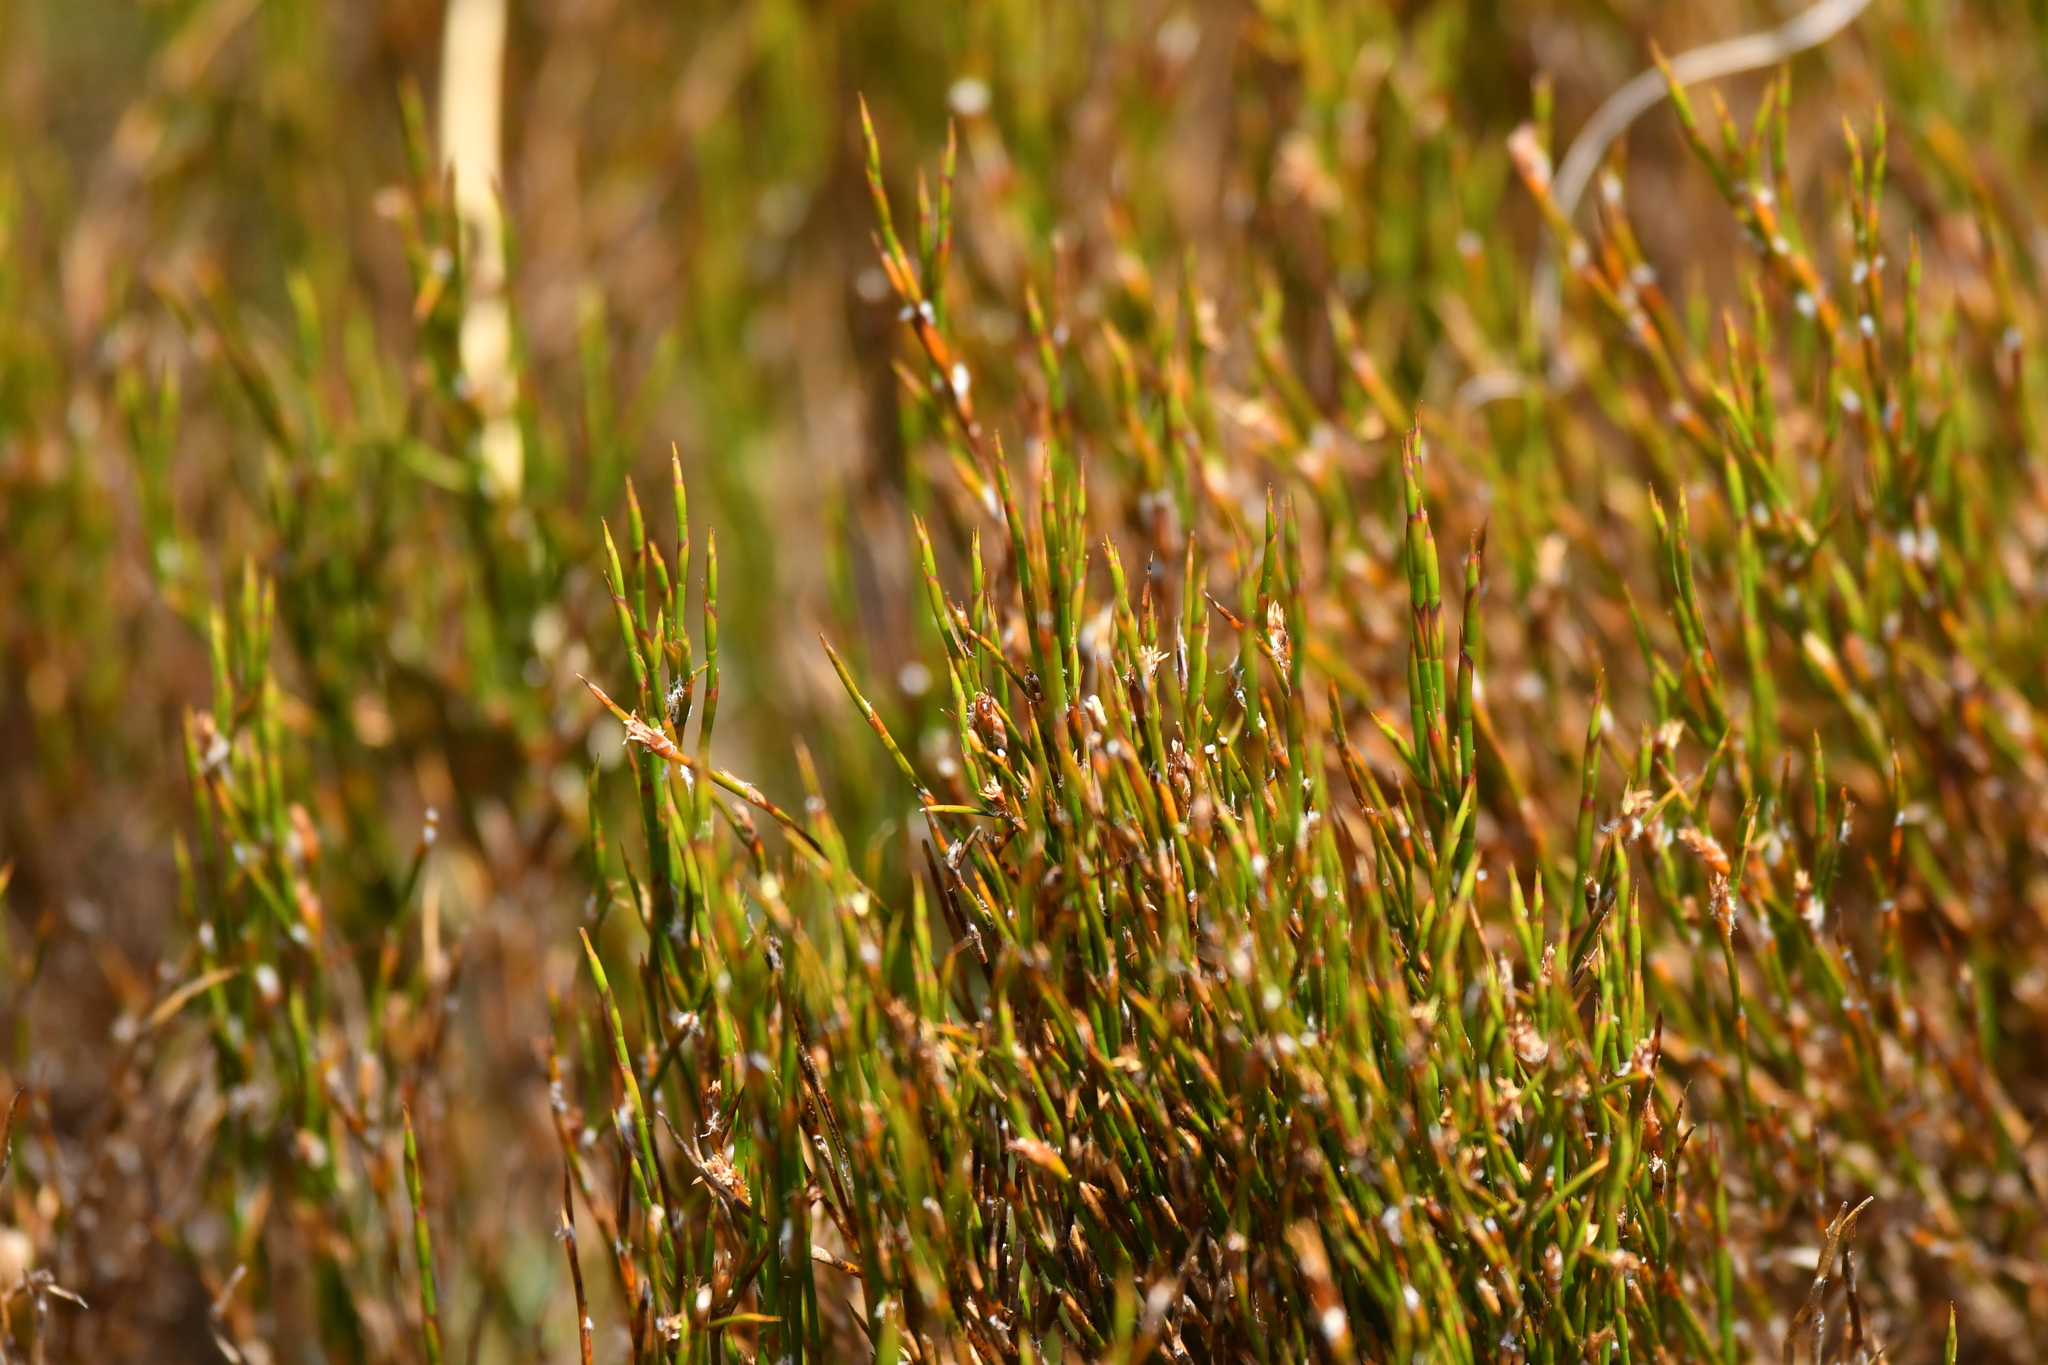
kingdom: Plantae
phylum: Tracheophyta
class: Liliopsida
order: Poales
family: Restionaceae
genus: Empodisma
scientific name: Empodisma minus
